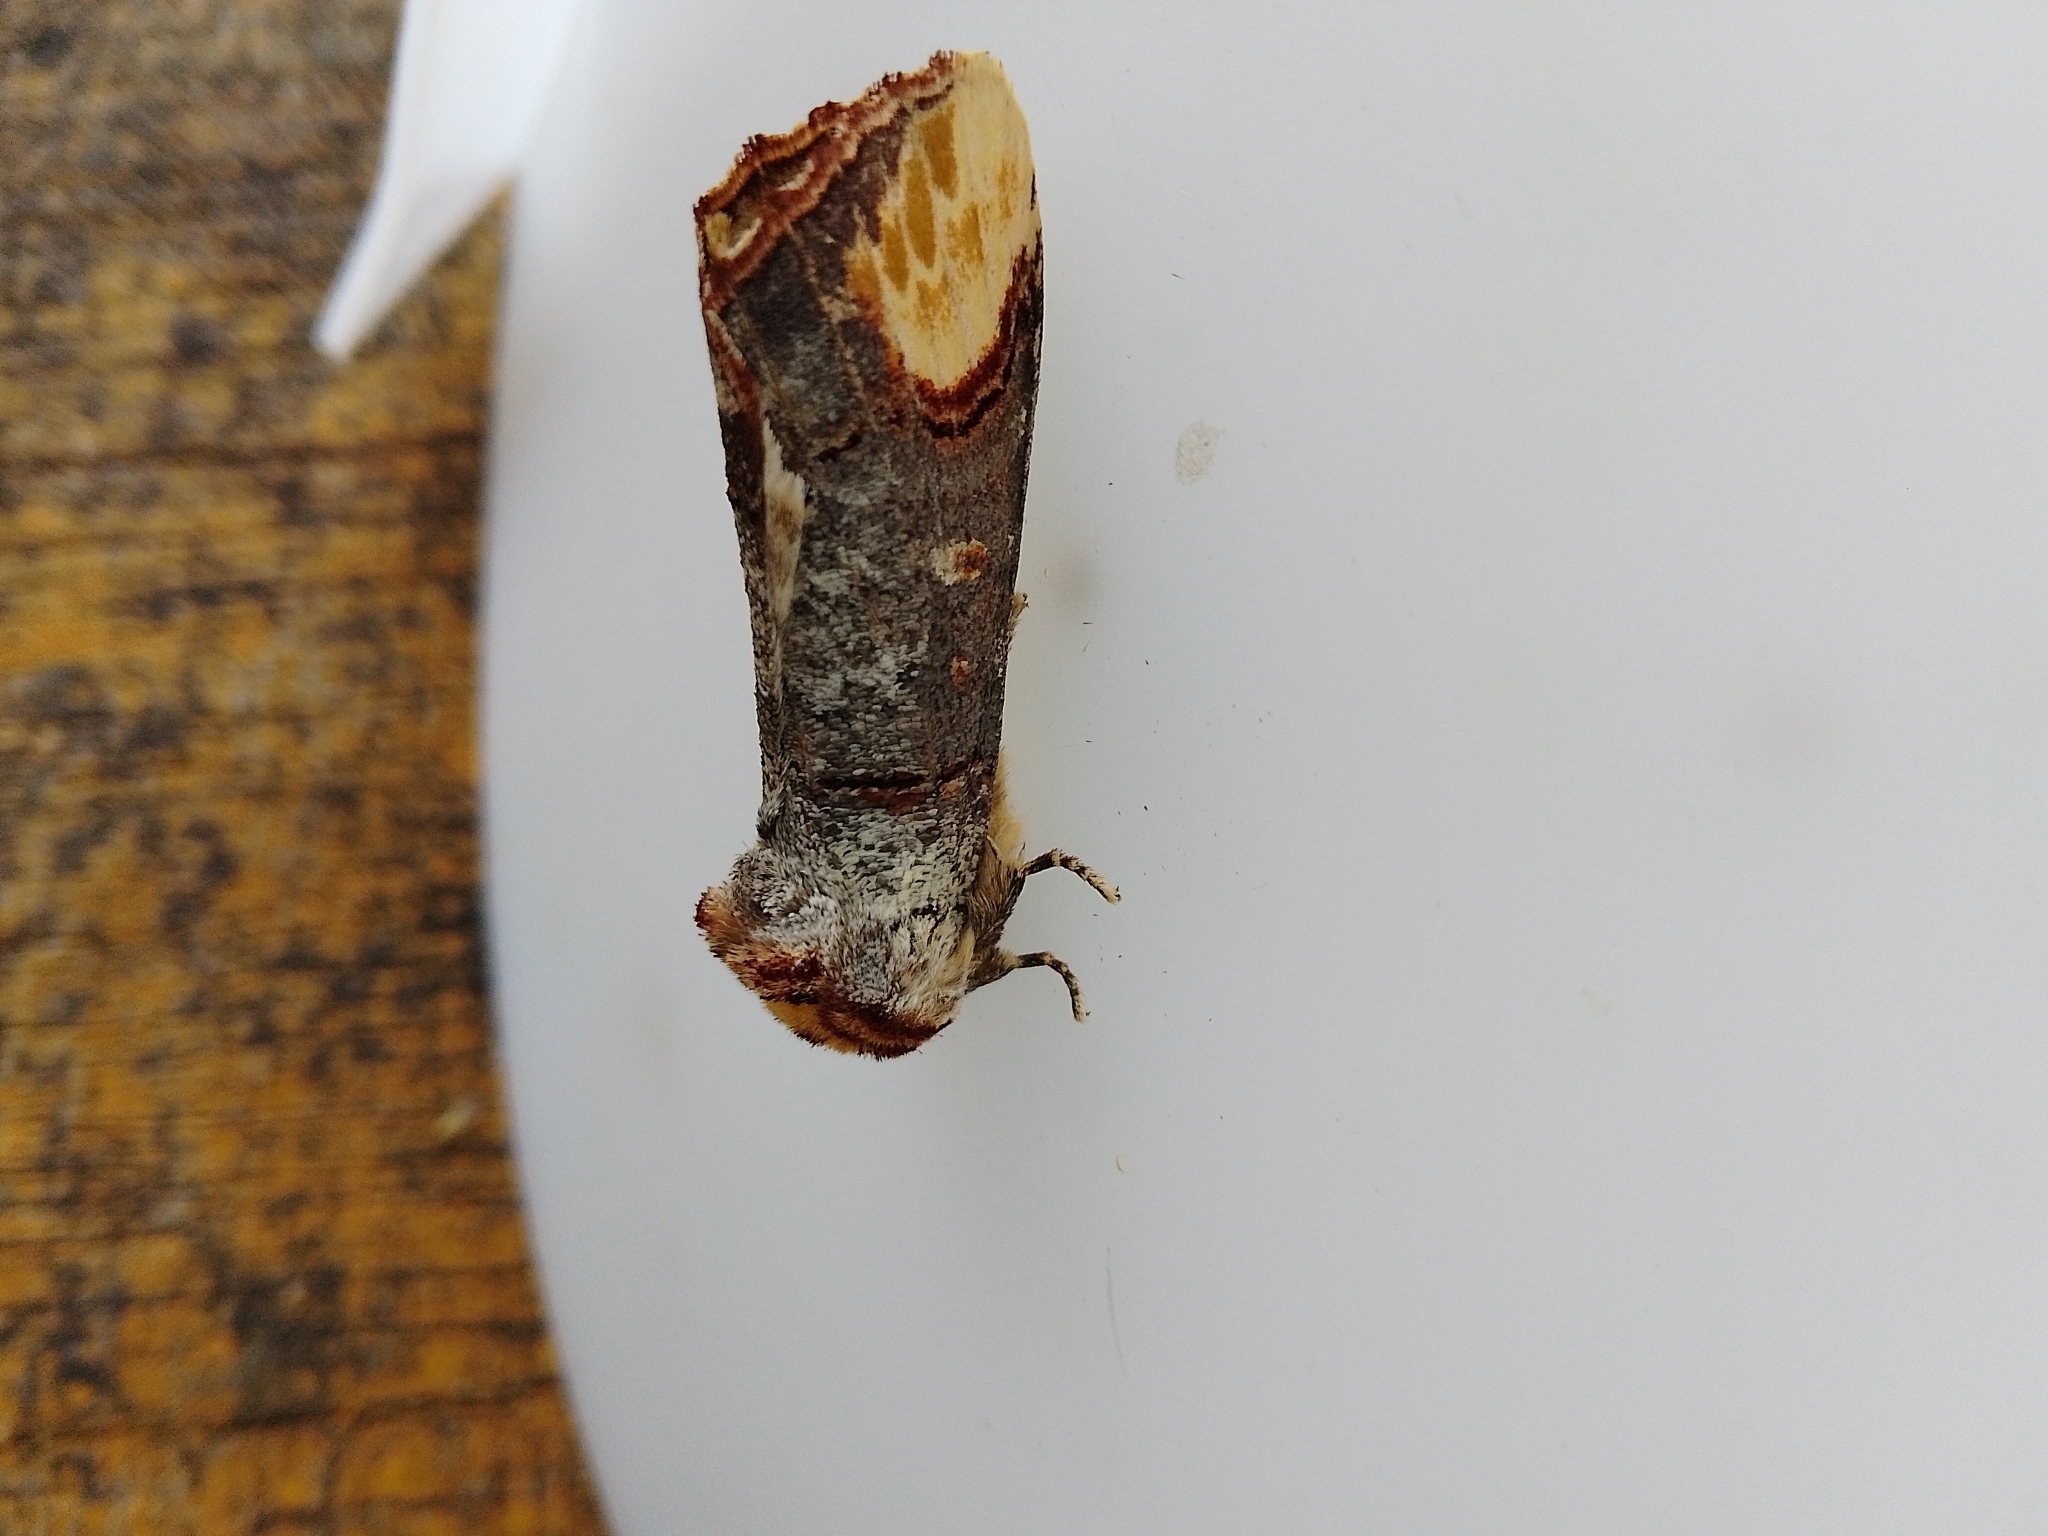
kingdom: Animalia
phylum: Arthropoda
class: Insecta
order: Lepidoptera
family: Notodontidae
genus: Phalera
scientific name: Phalera bucephala
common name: Buff-tip
